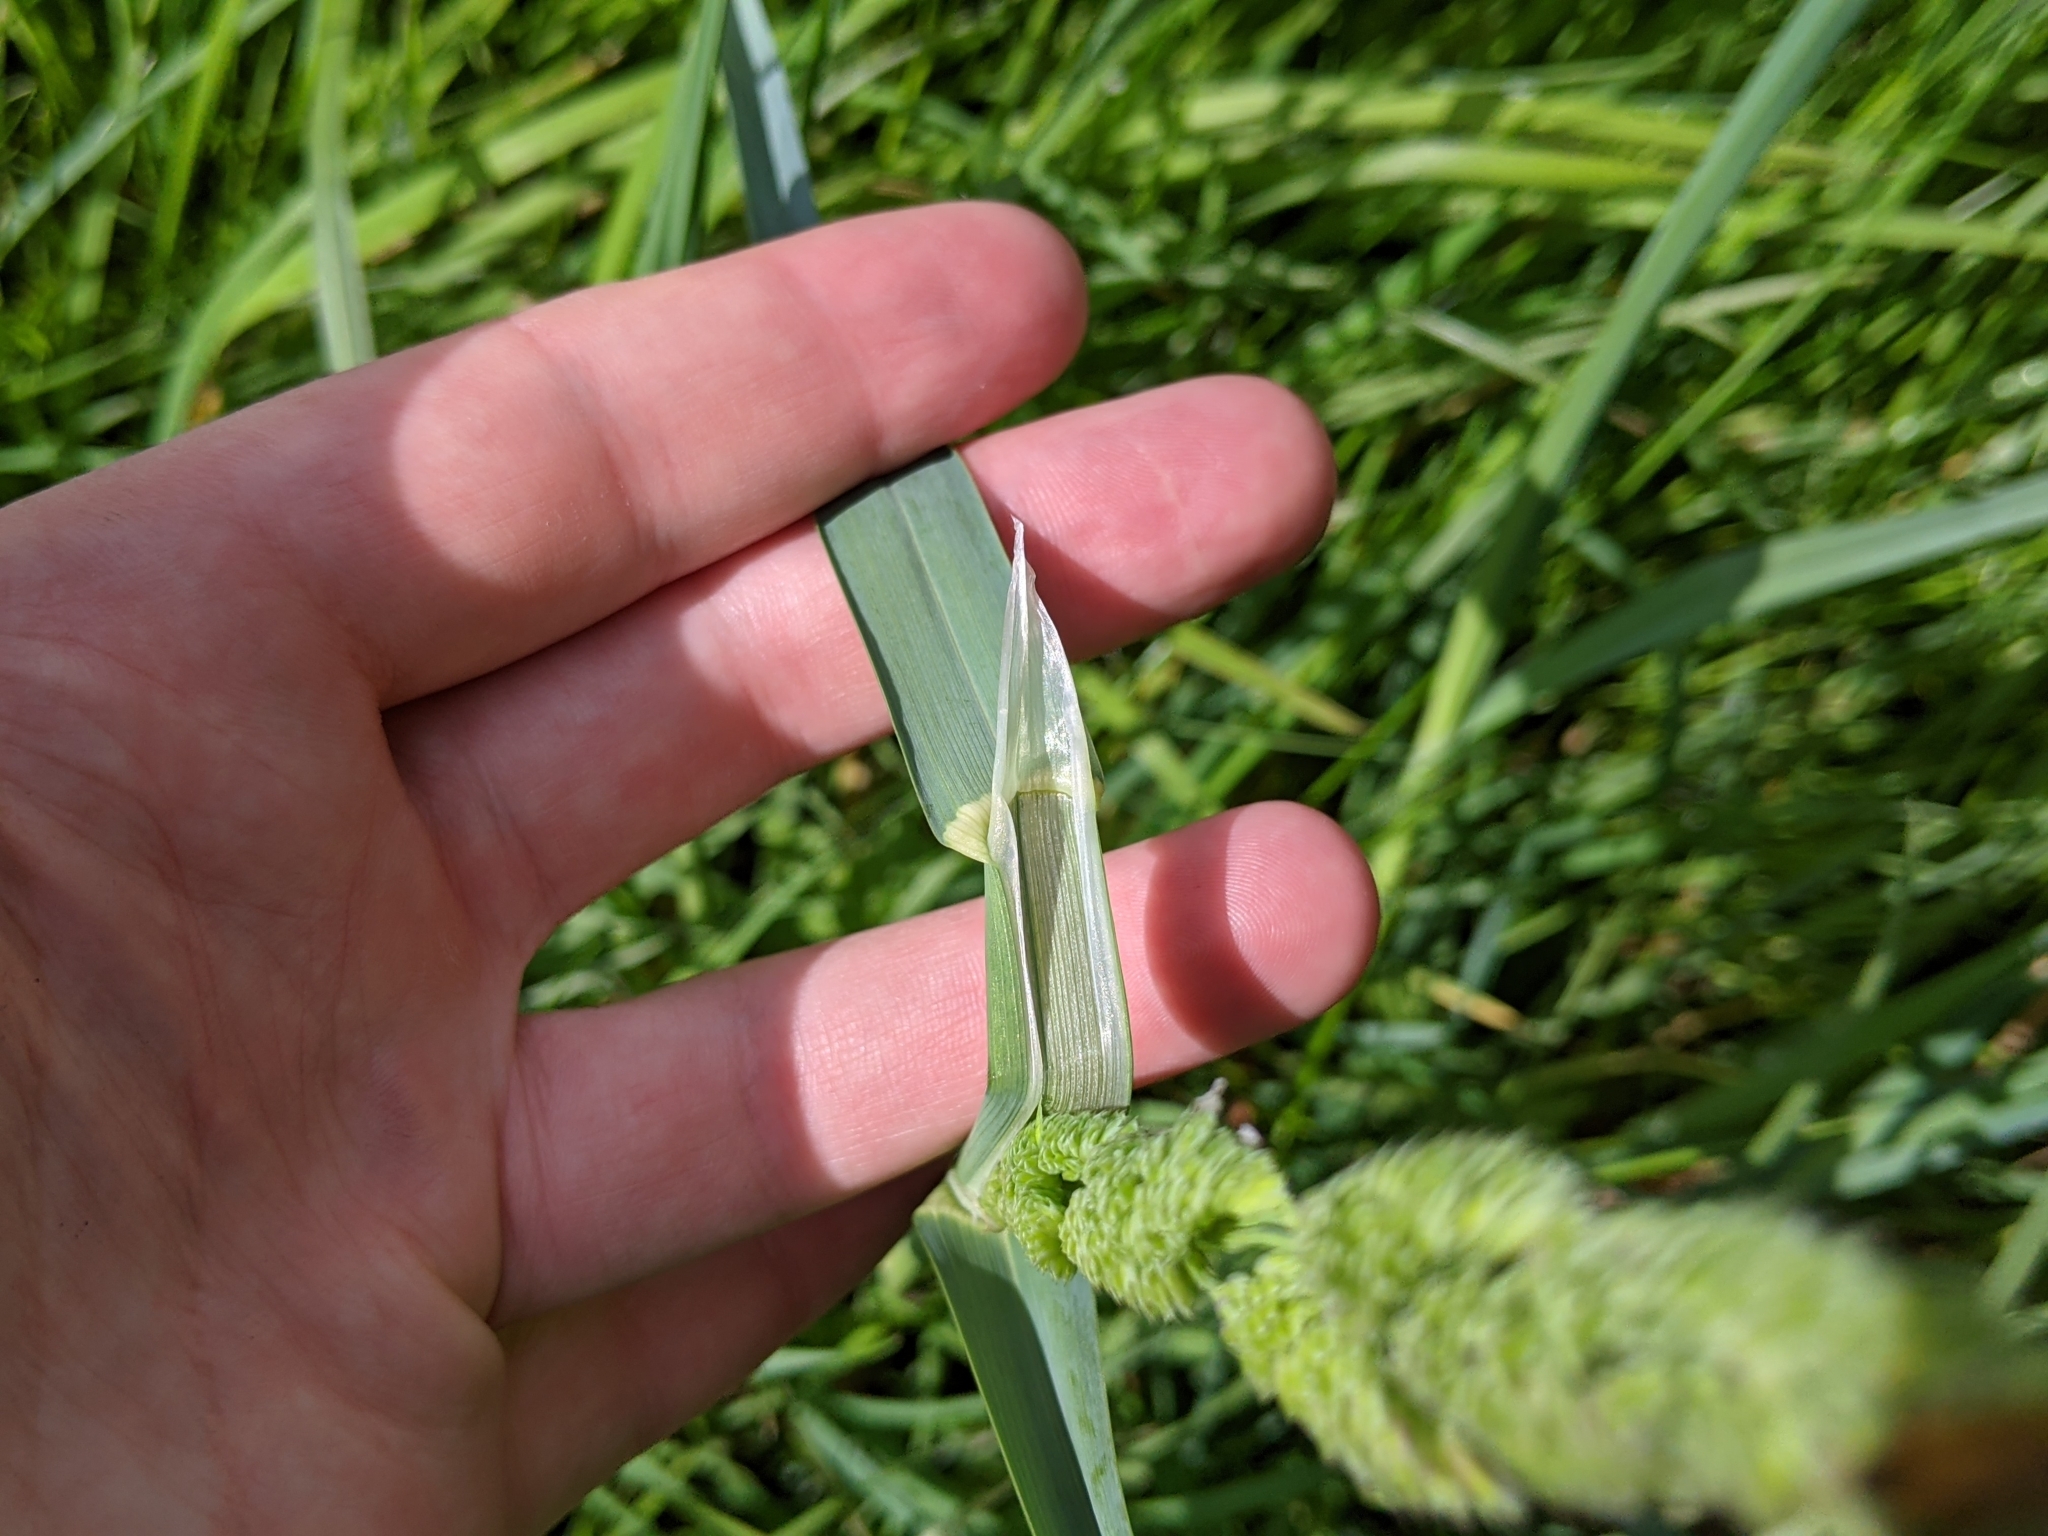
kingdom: Plantae
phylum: Tracheophyta
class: Liliopsida
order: Poales
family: Poaceae
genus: Dactylis
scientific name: Dactylis glomerata
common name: Orchardgrass
